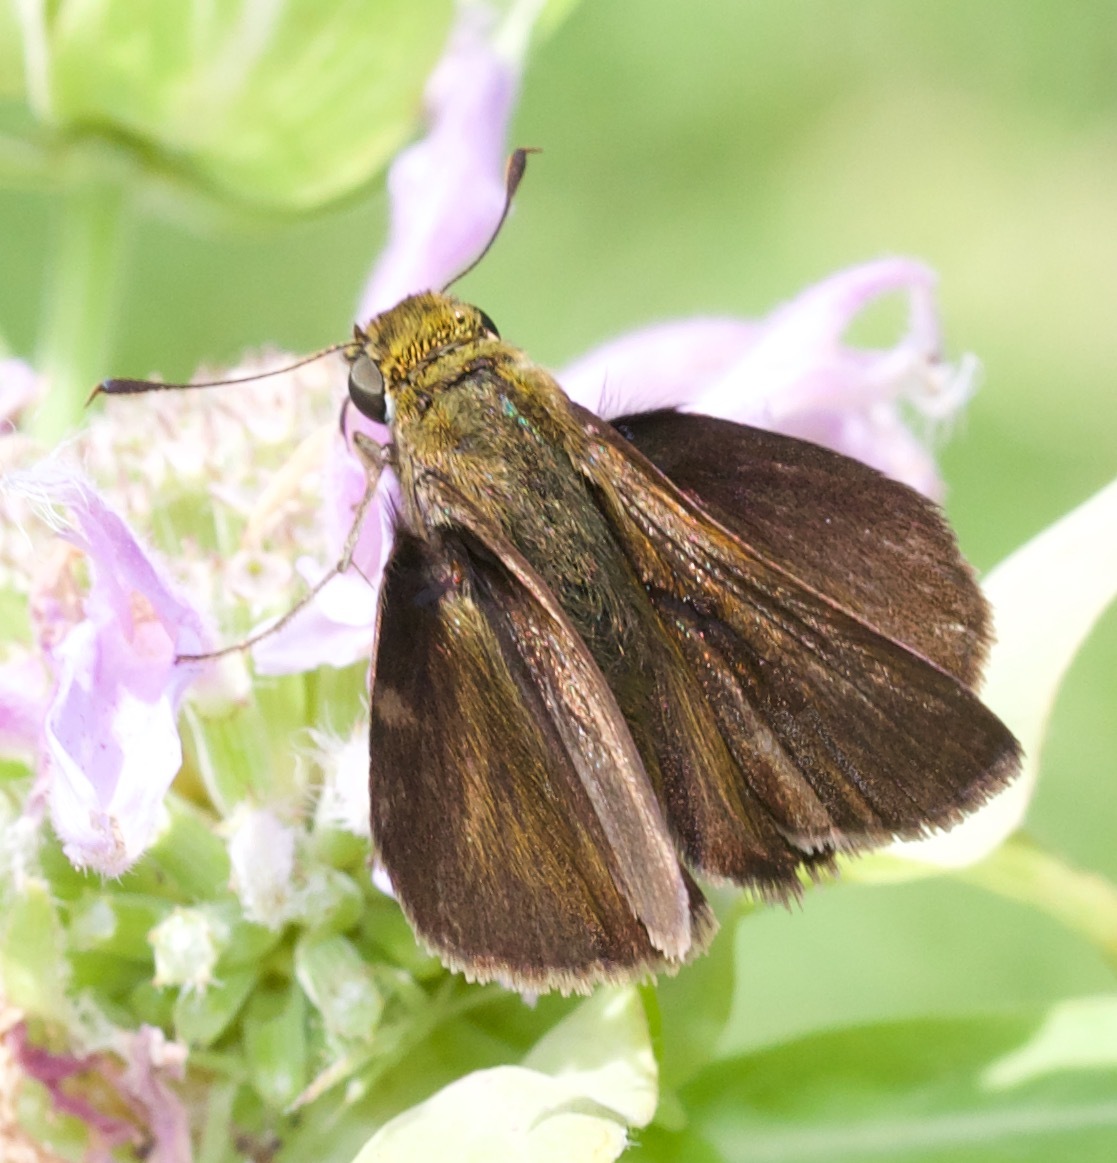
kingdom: Animalia
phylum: Arthropoda
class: Insecta
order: Lepidoptera
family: Hesperiidae
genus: Euphyes
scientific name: Euphyes vestris
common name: Dun skipper
